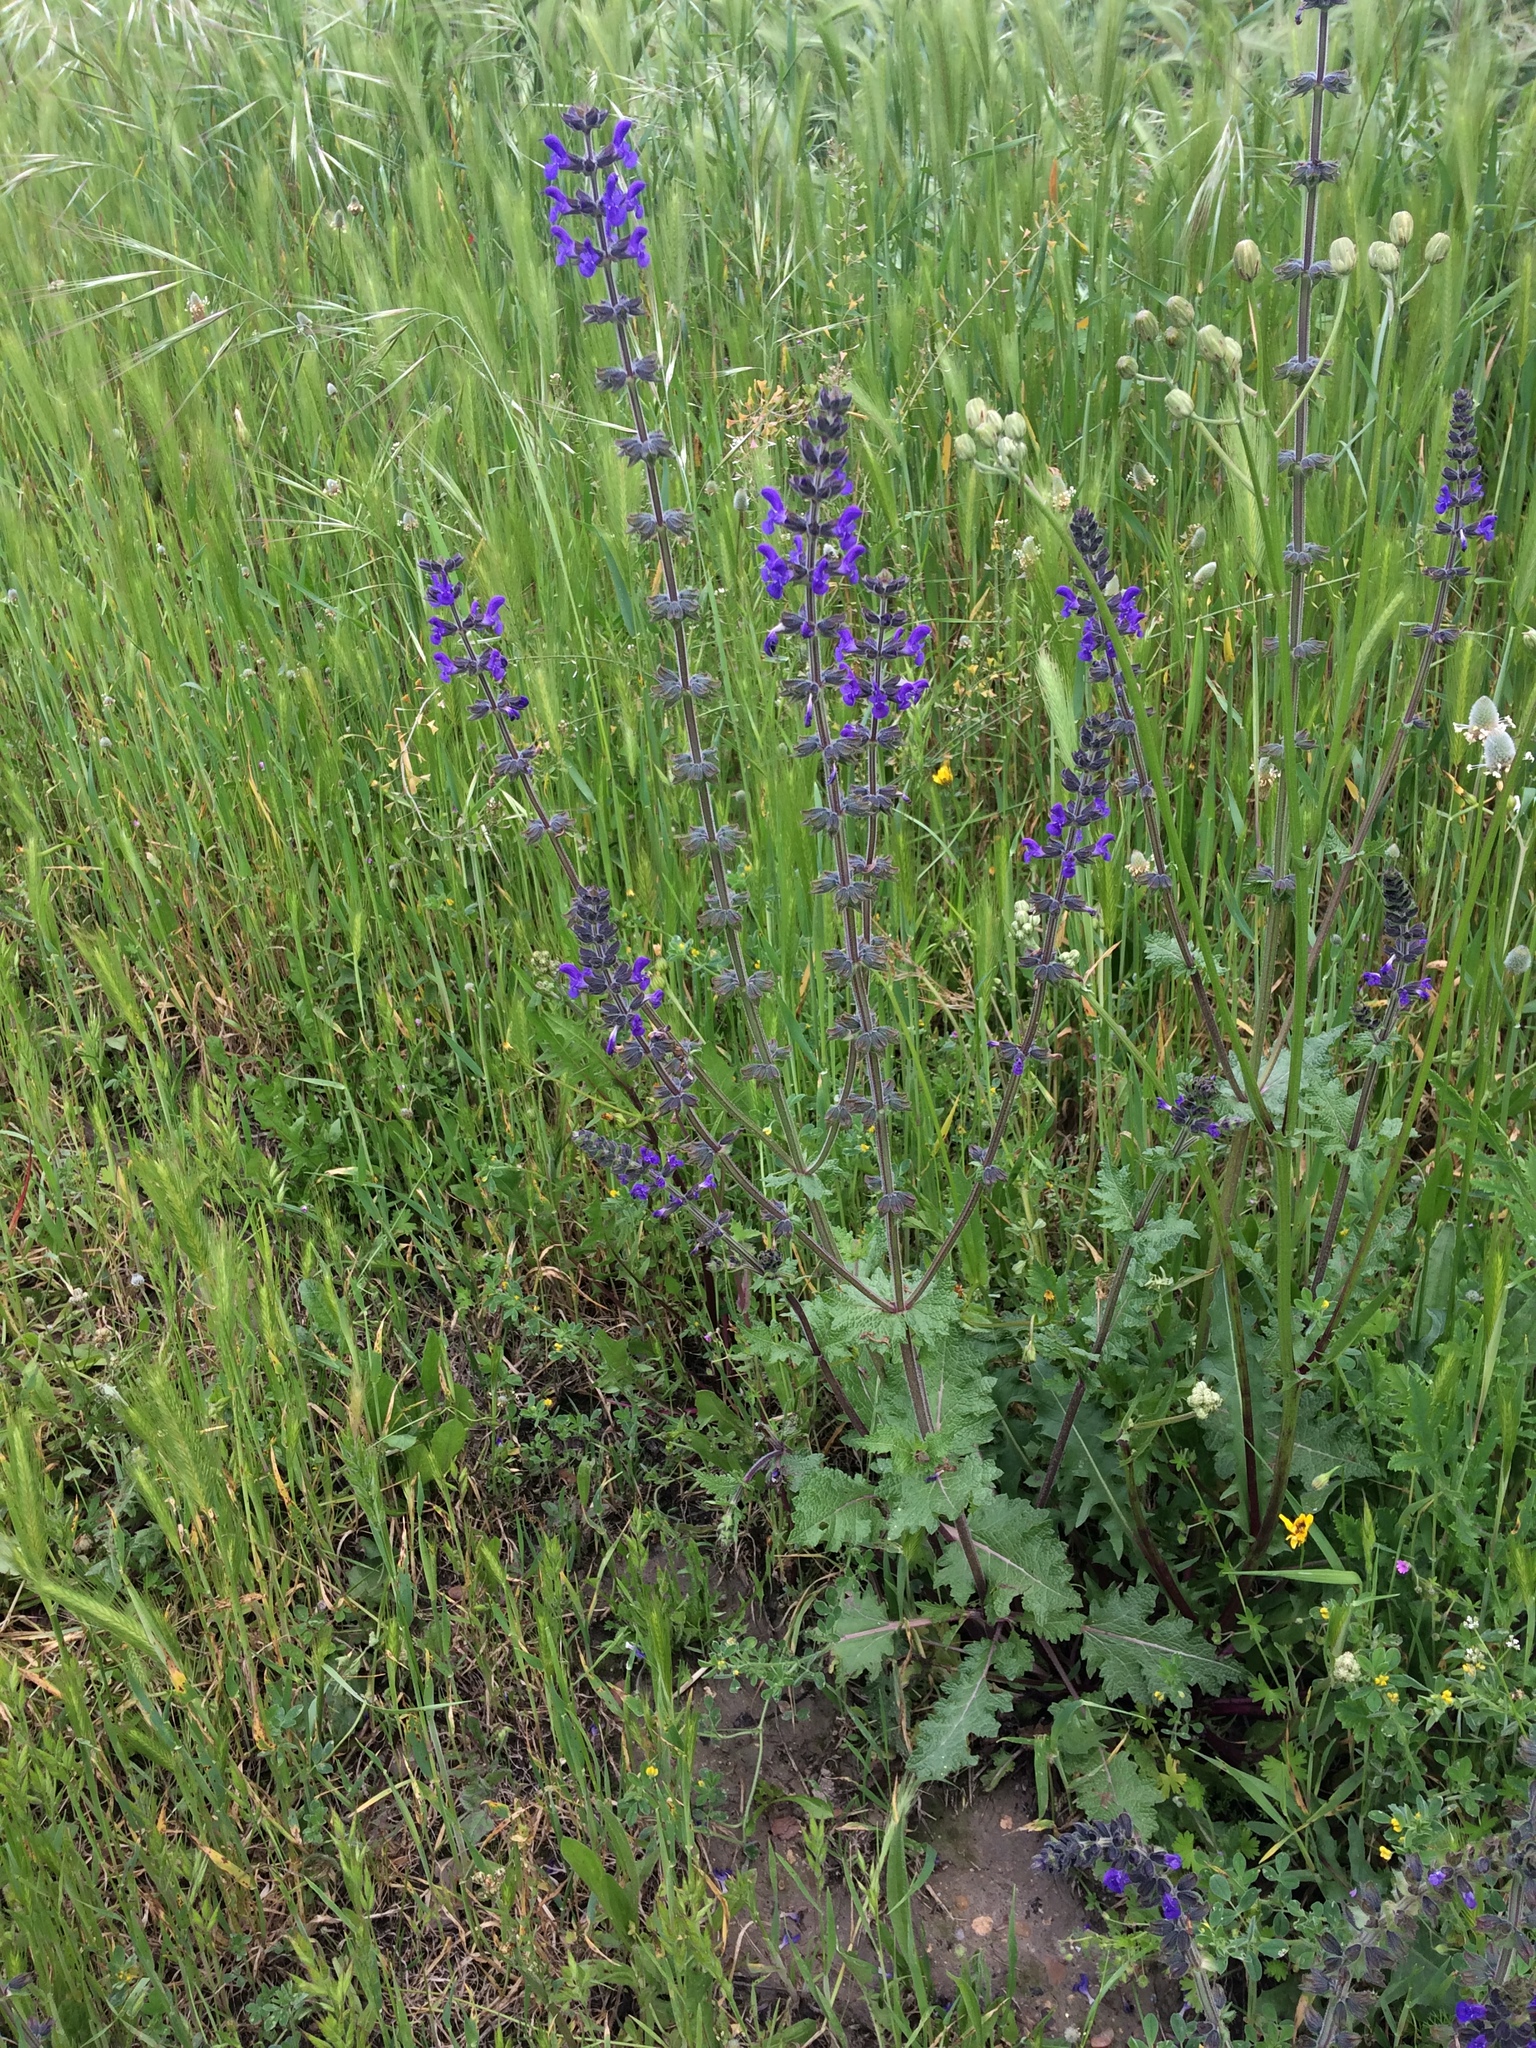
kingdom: Plantae
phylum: Tracheophyta
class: Magnoliopsida
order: Lamiales
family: Lamiaceae
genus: Salvia
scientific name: Salvia verbenaca
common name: Wild clary
